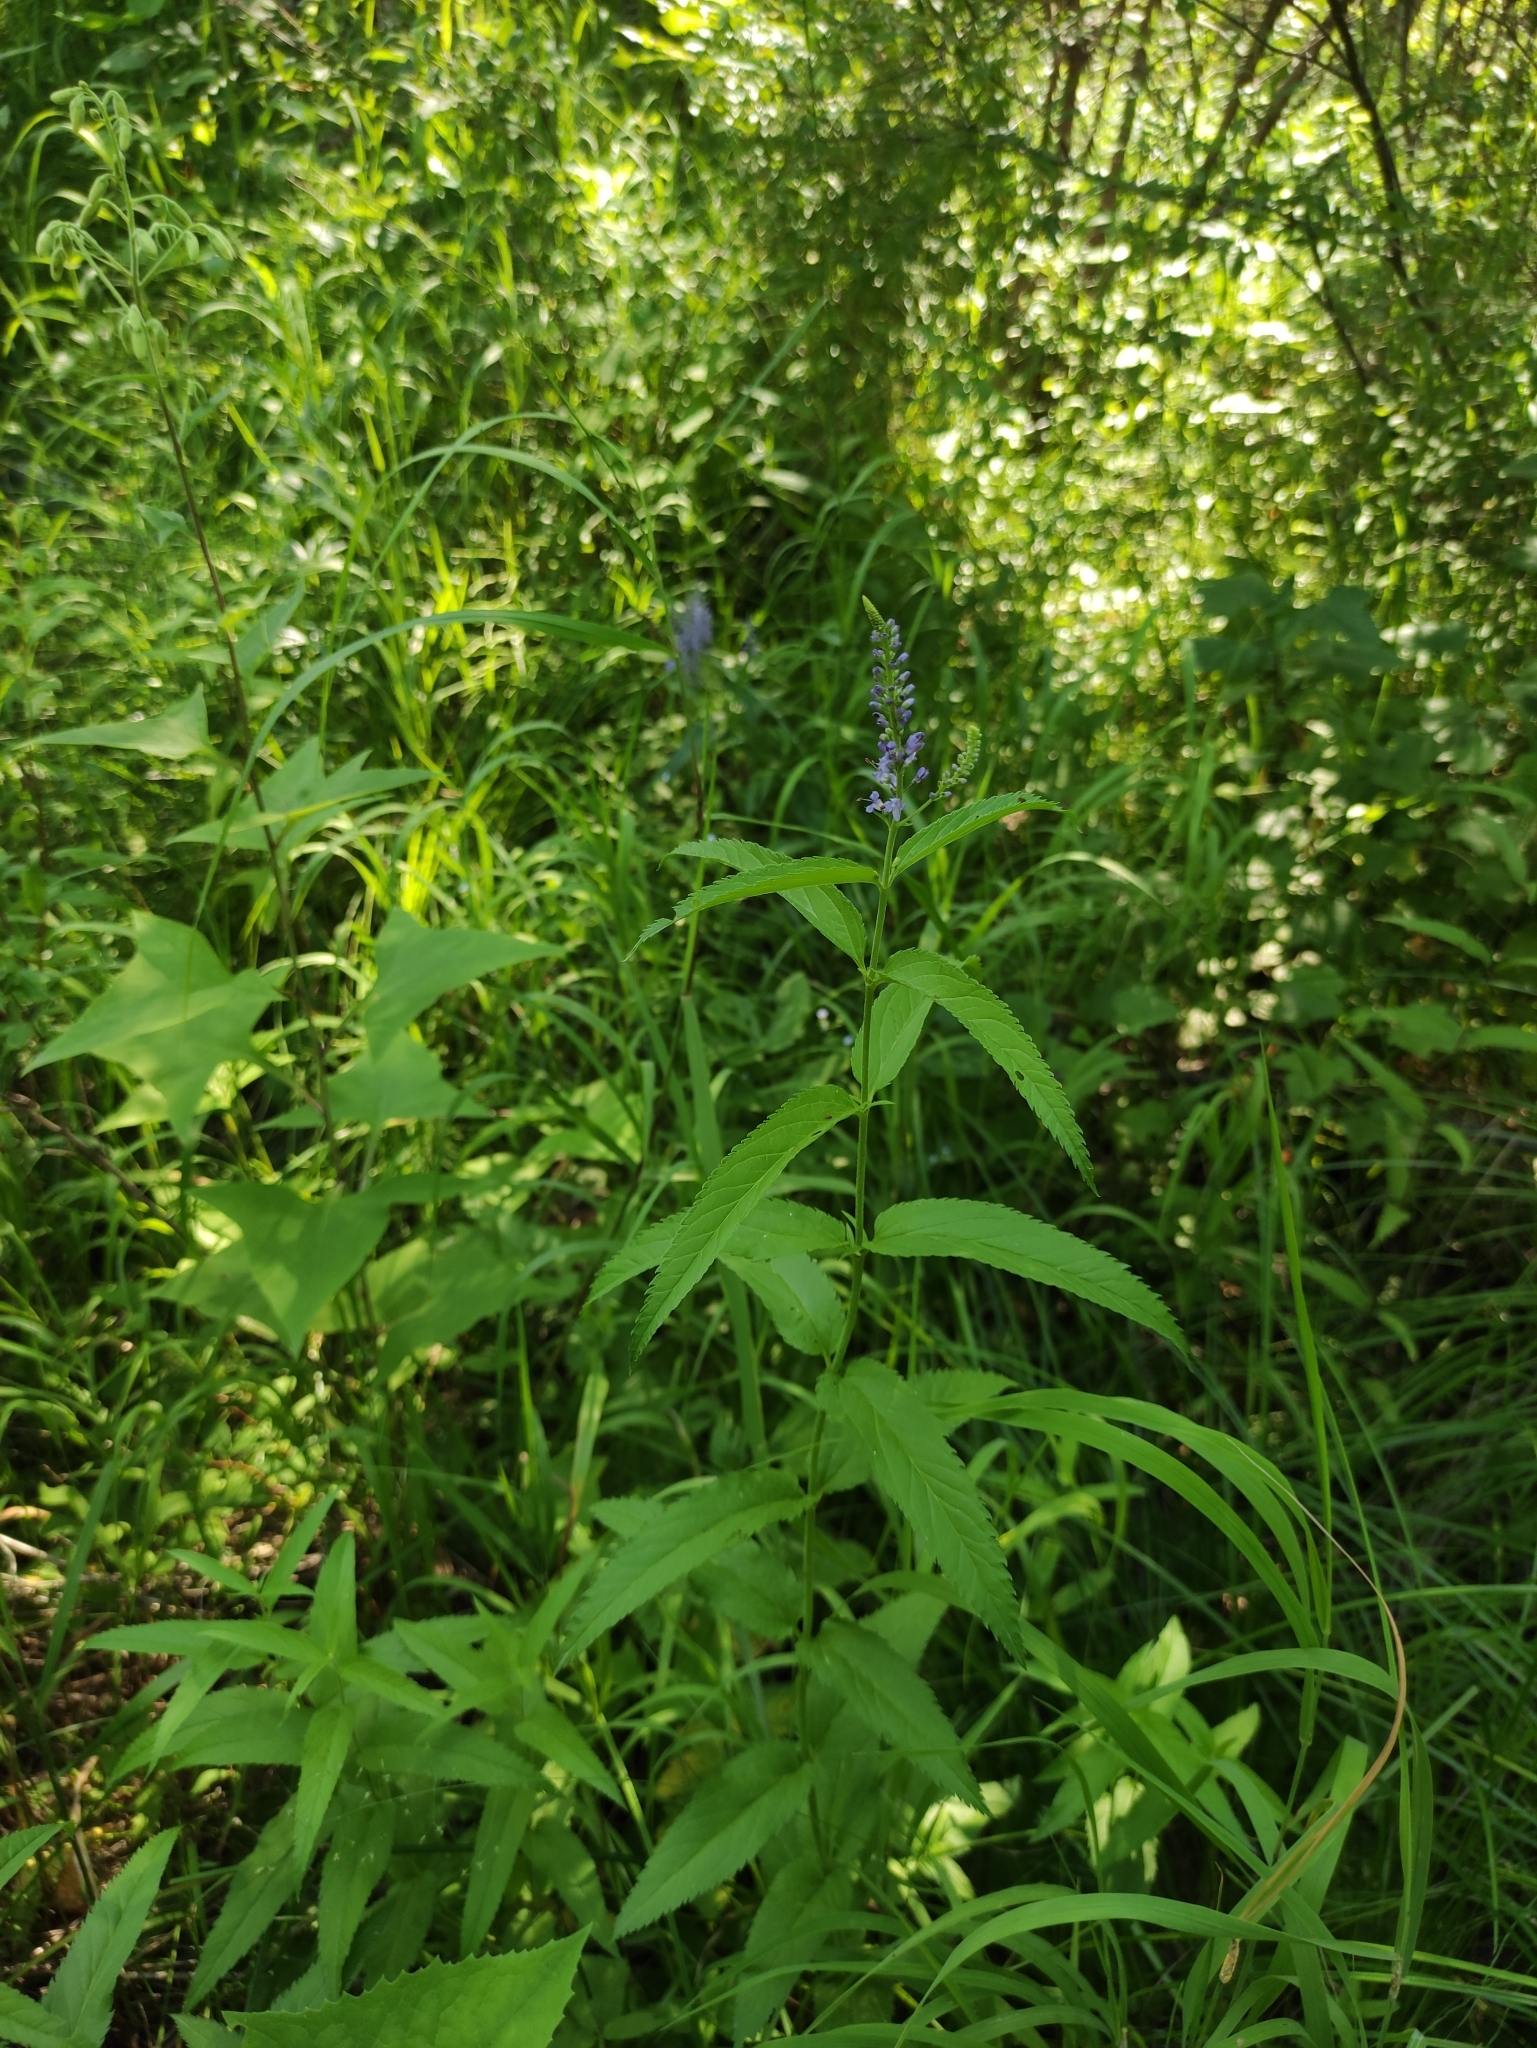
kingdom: Plantae
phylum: Tracheophyta
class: Magnoliopsida
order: Lamiales
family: Plantaginaceae
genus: Veronica
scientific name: Veronica longifolia
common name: Garden speedwell
